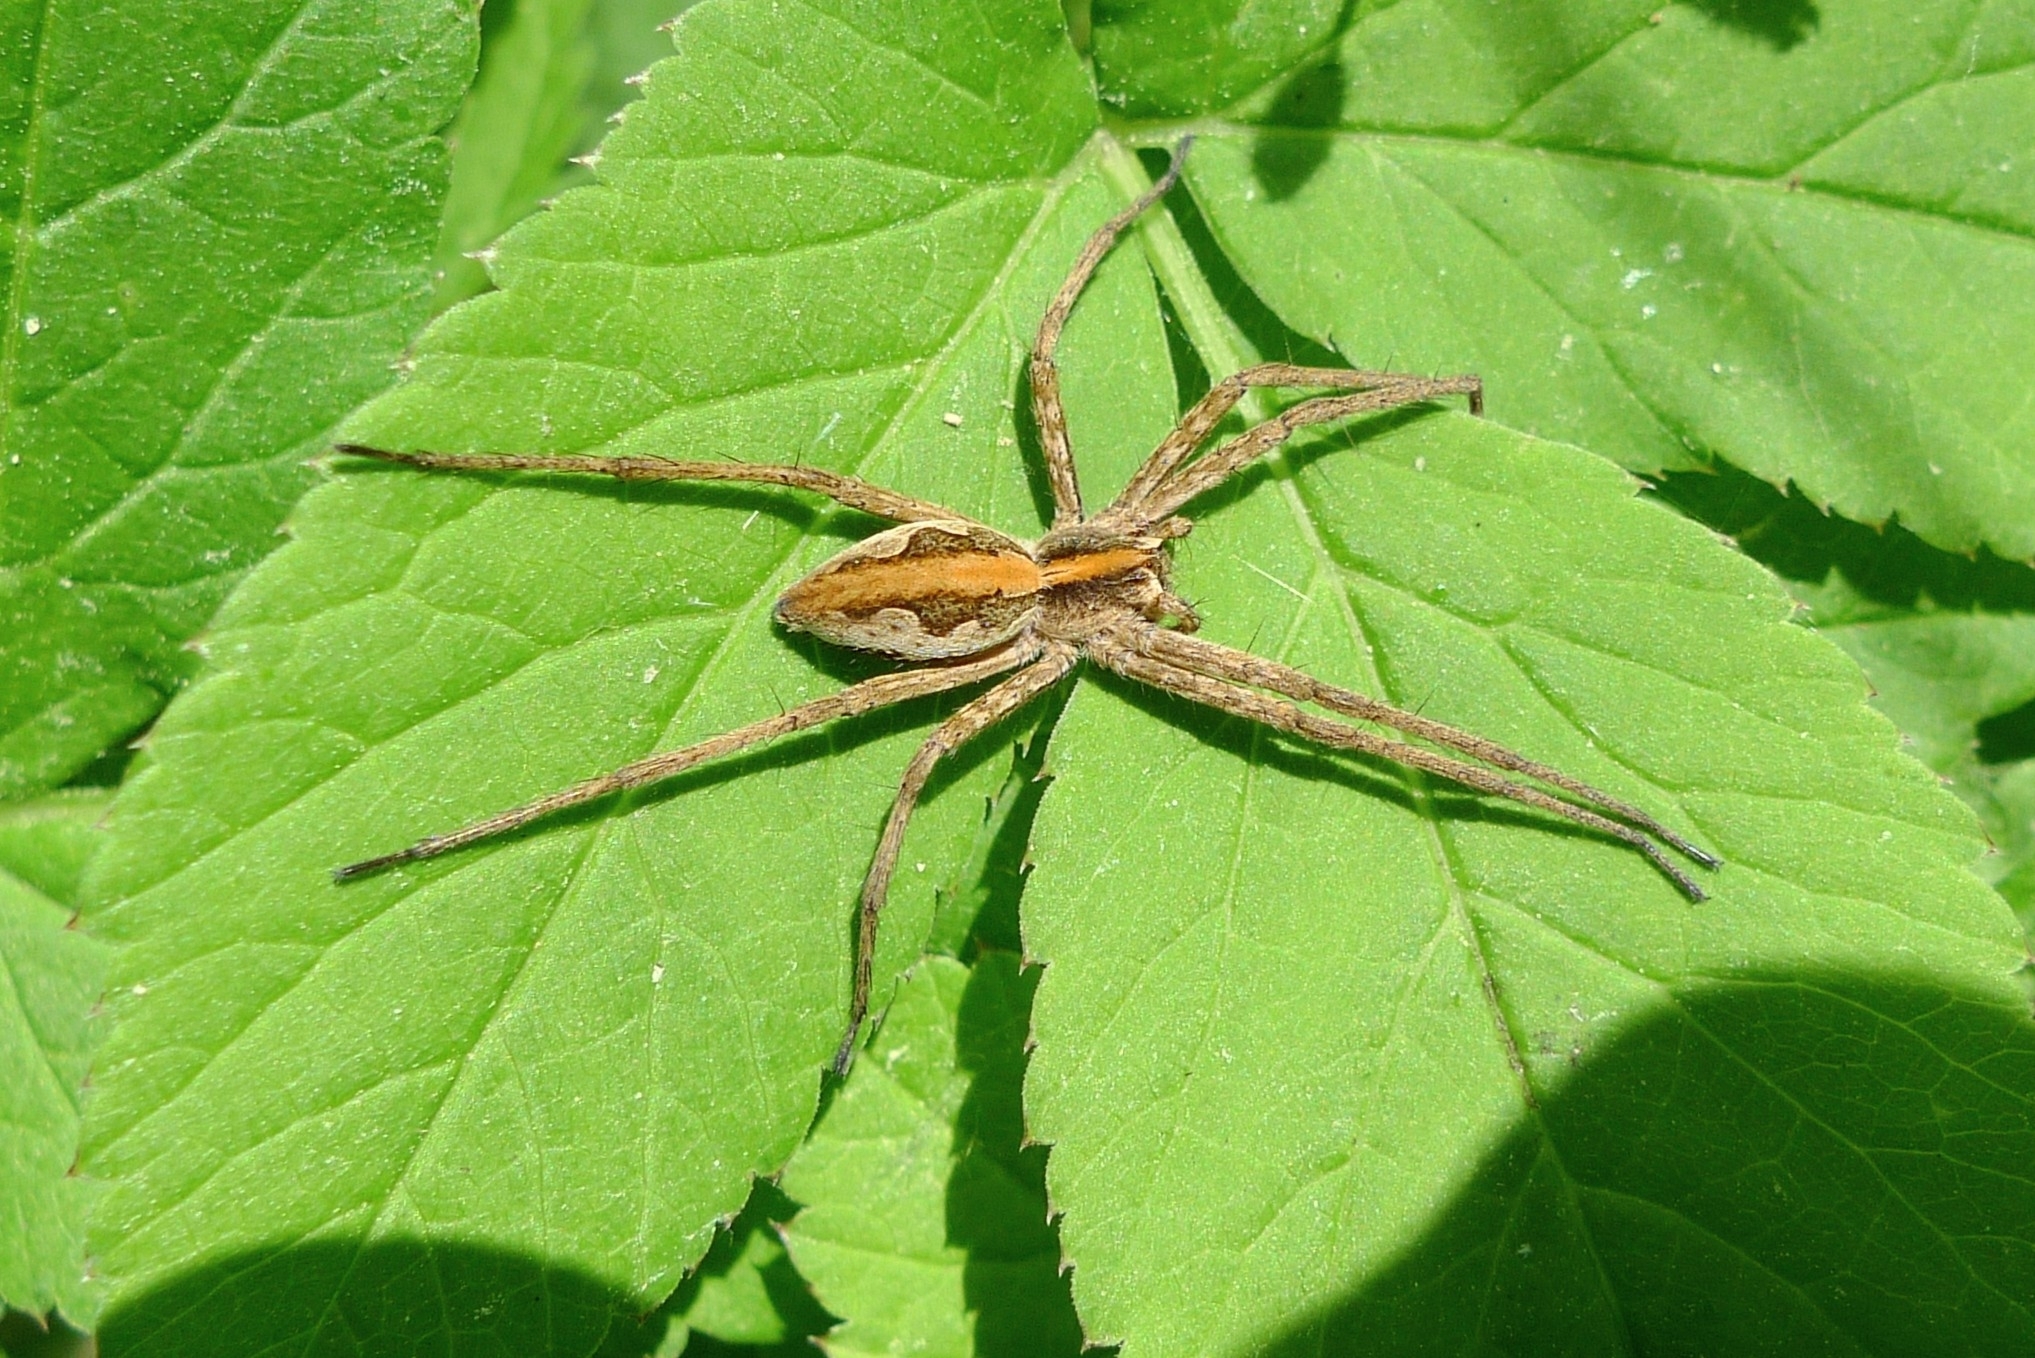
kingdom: Animalia
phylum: Arthropoda
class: Arachnida
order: Araneae
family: Pisauridae
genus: Pisaura
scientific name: Pisaura mirabilis
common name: Tent spider
